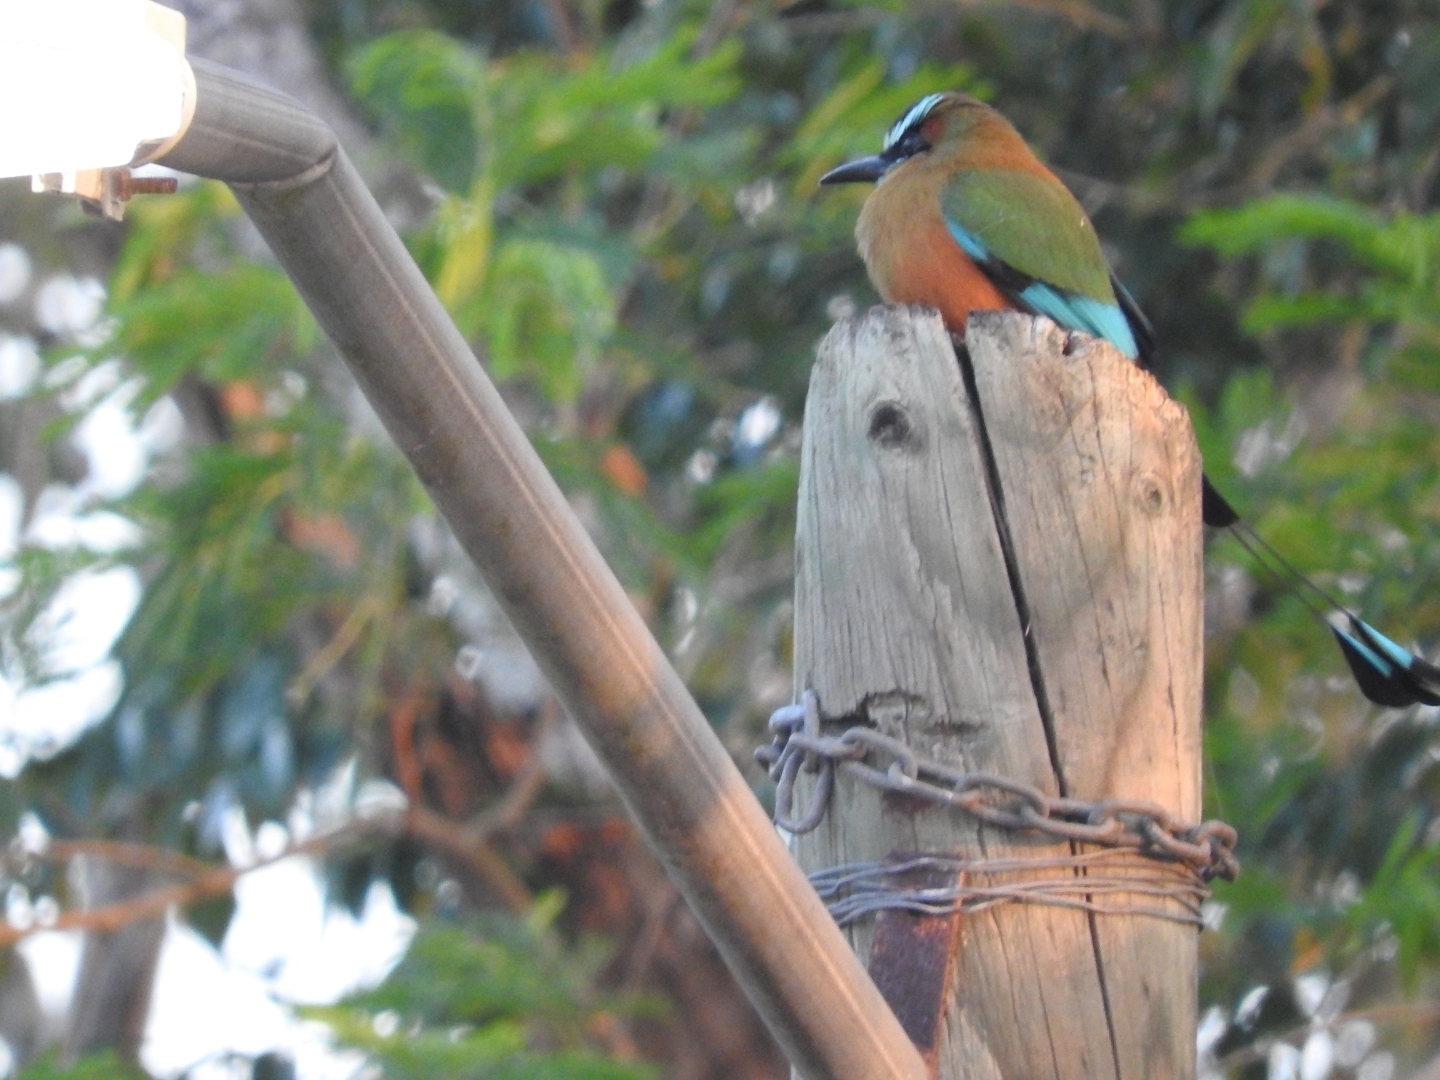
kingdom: Animalia
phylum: Chordata
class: Aves
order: Coraciiformes
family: Momotidae
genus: Eumomota
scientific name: Eumomota superciliosa
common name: Turquoise-browed motmot
